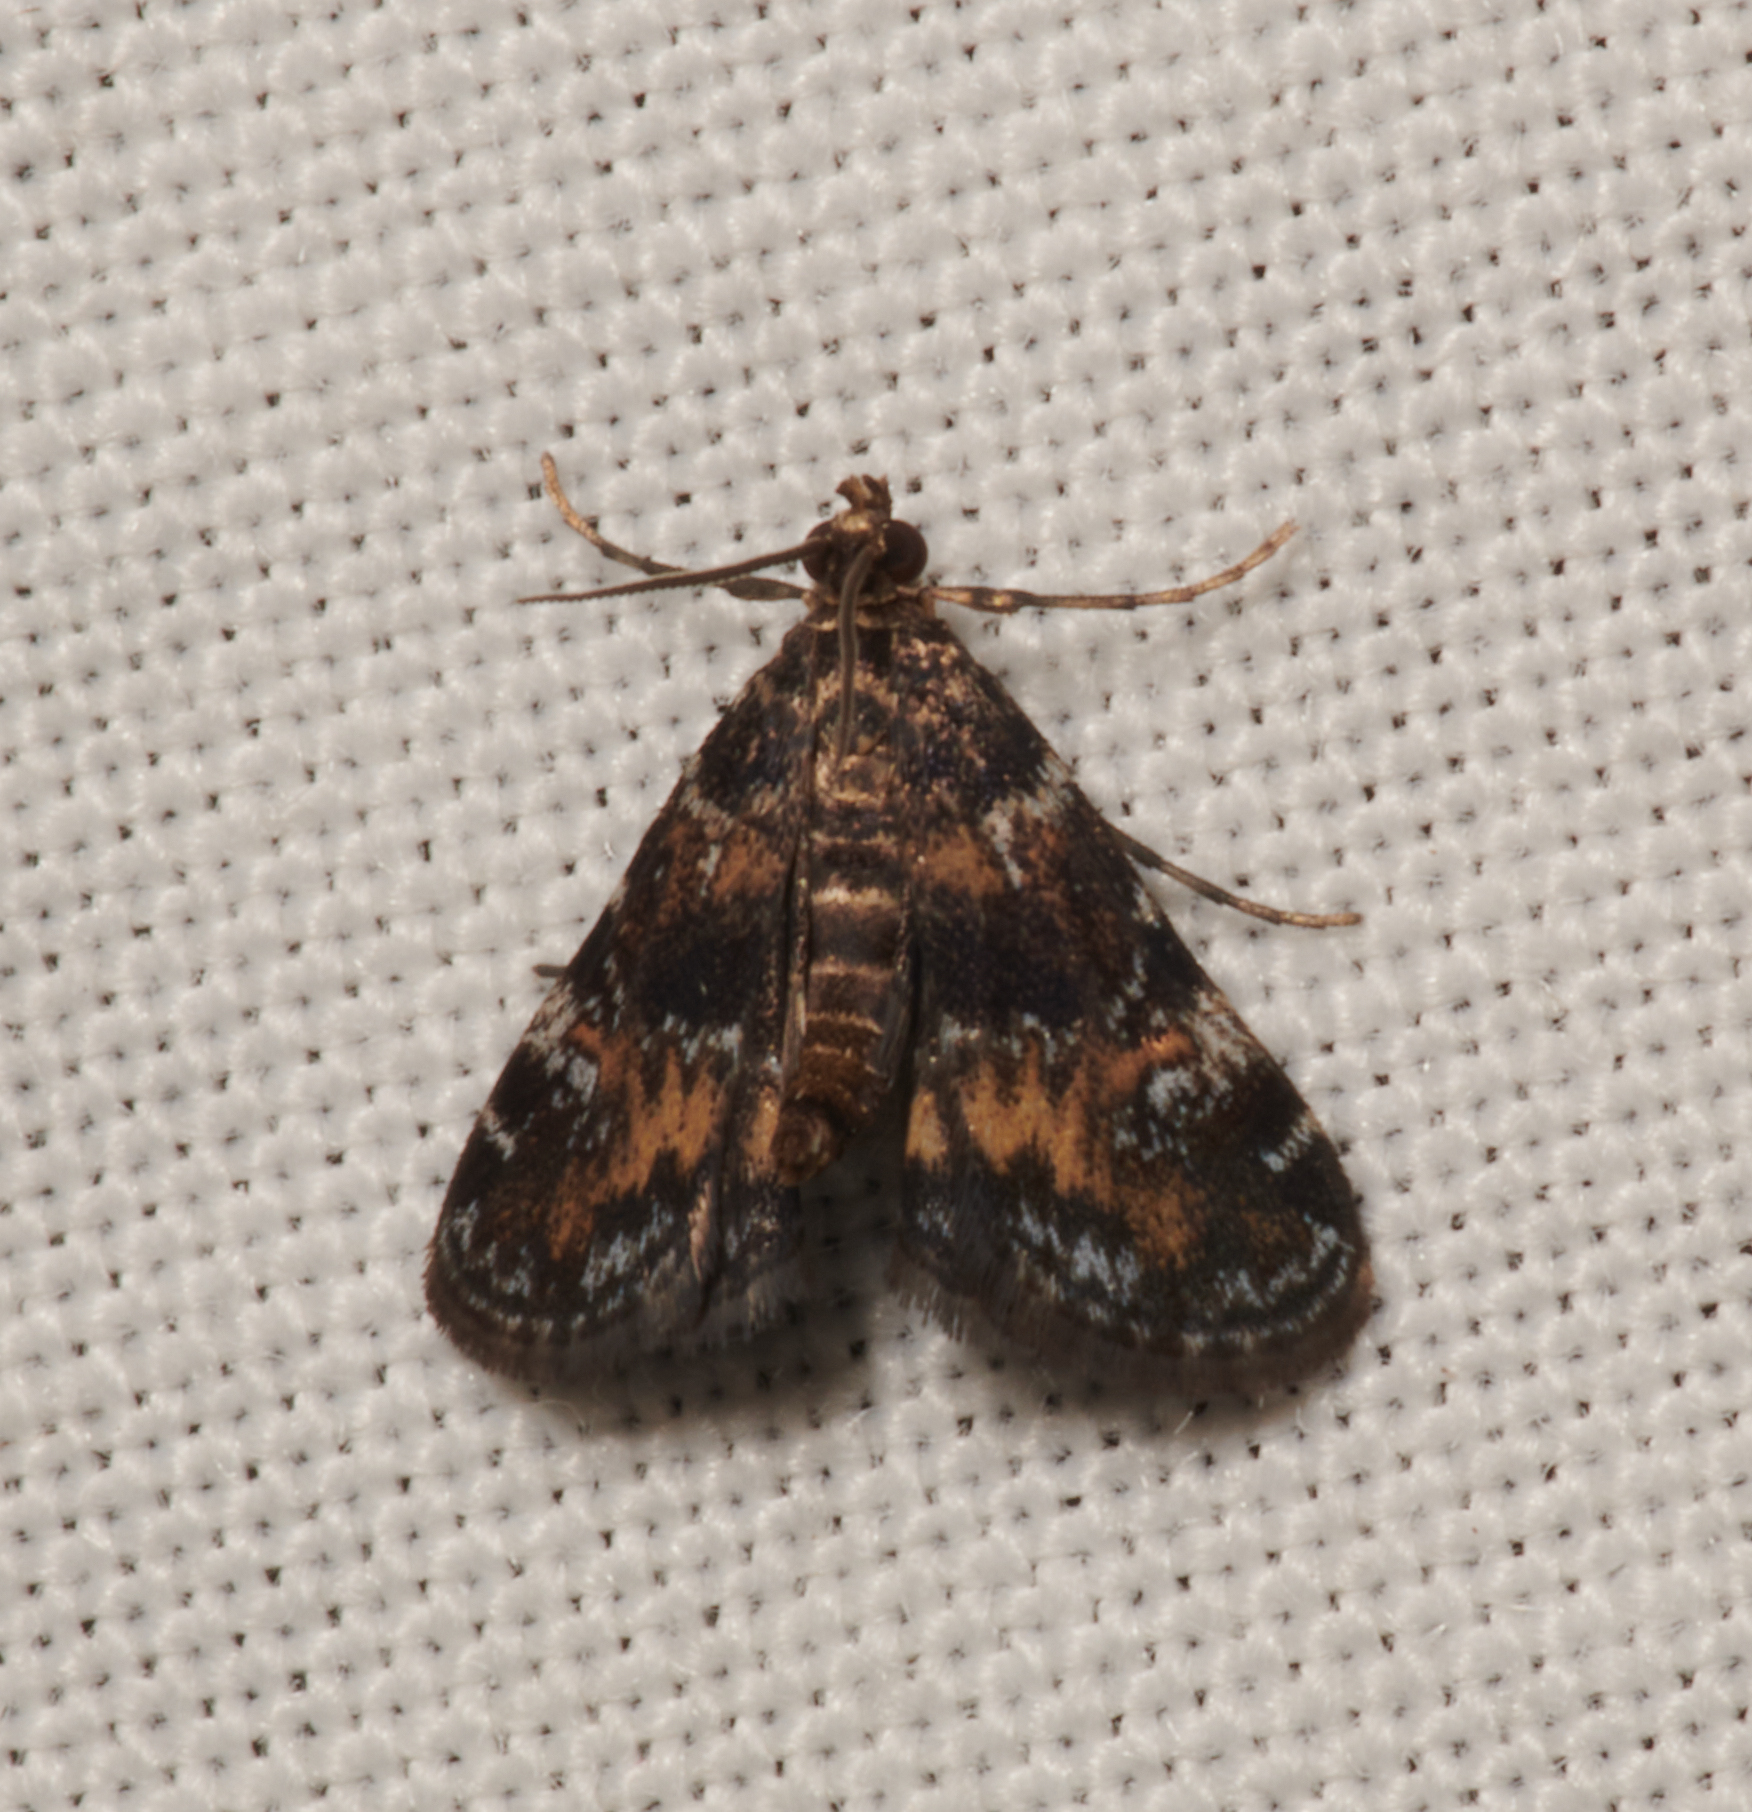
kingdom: Animalia
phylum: Arthropoda
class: Insecta
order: Lepidoptera
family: Crambidae
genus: Elophila
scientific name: Elophila obliteralis
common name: Waterlily leafcutter moth
